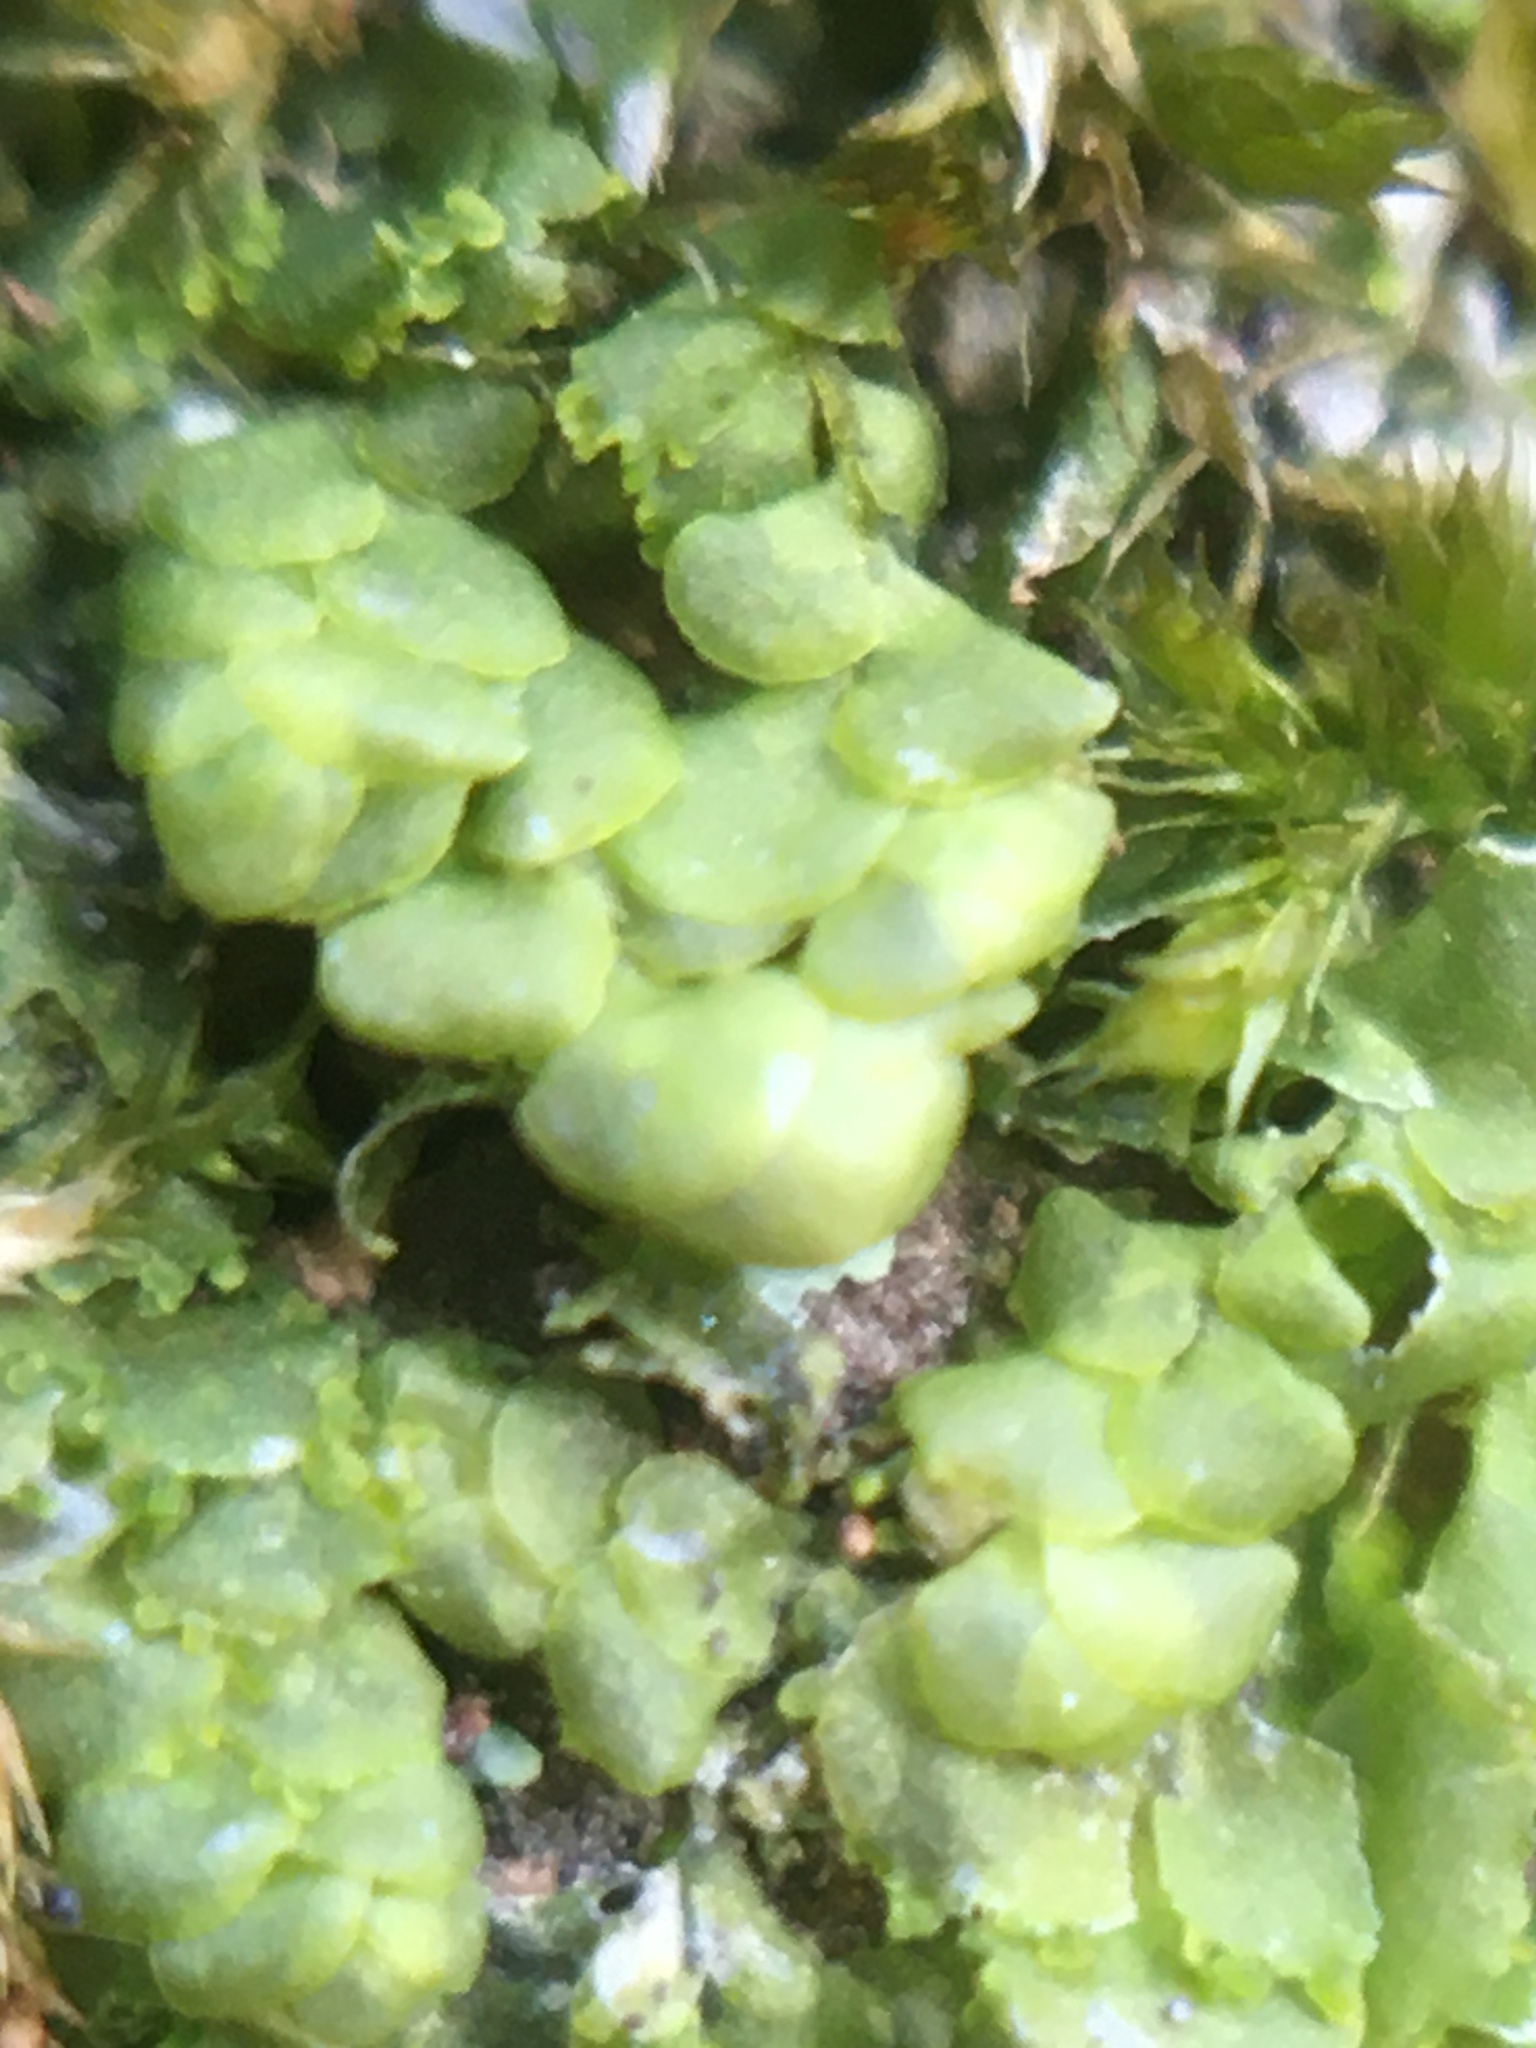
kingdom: Plantae
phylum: Marchantiophyta
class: Jungermanniopsida
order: Porellales
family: Radulaceae
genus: Radula
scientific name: Radula complanata
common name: Flat-leaved scalewort
